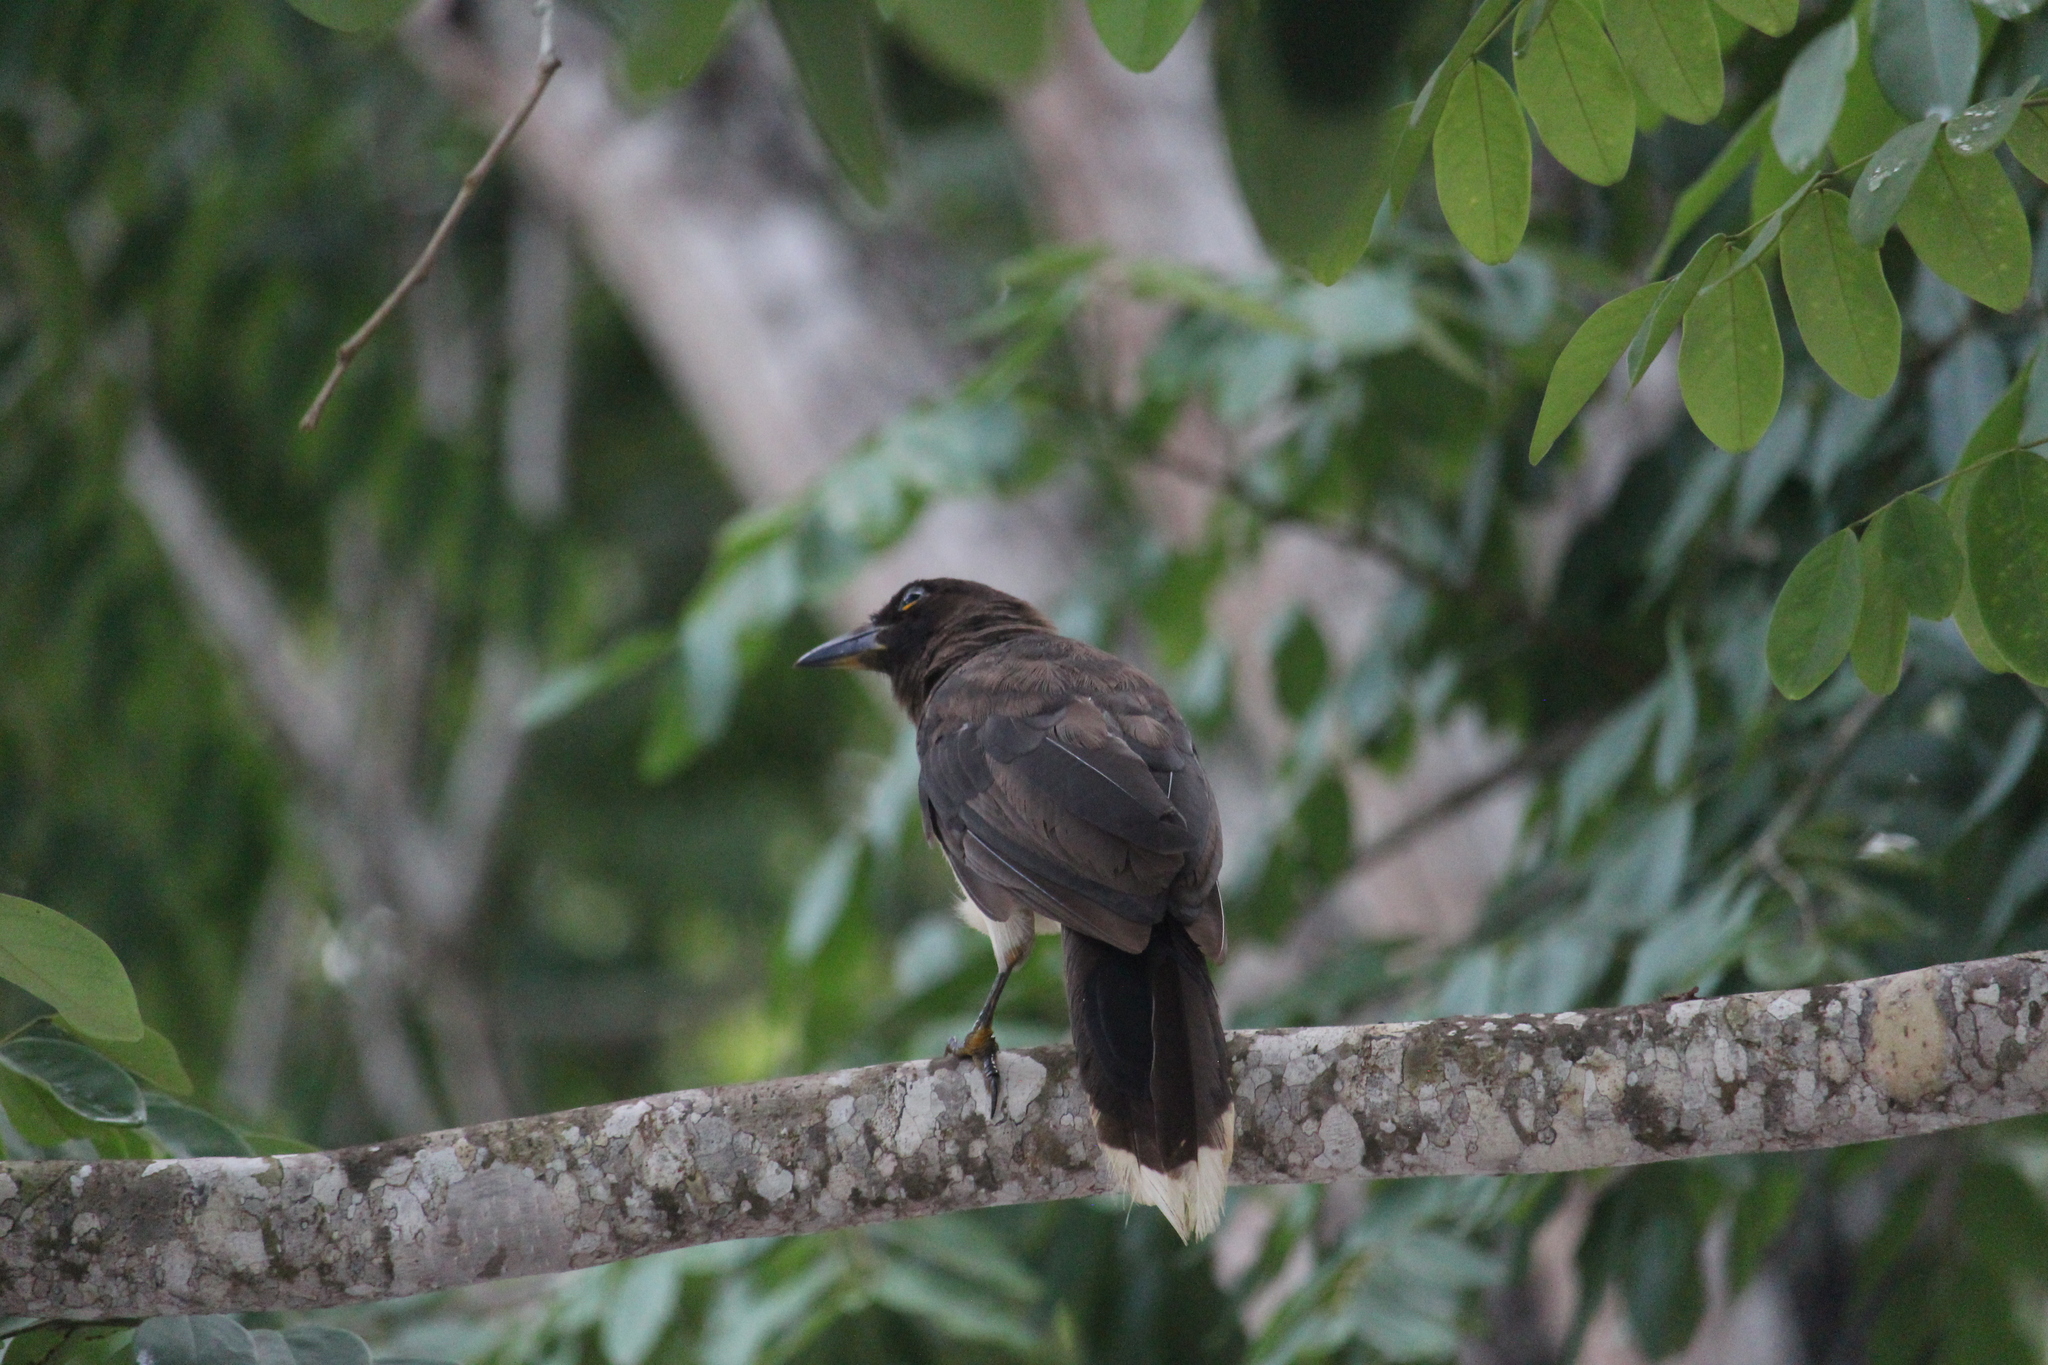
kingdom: Animalia
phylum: Chordata
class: Aves
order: Passeriformes
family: Corvidae
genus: Psilorhinus
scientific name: Psilorhinus morio
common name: Brown jay
